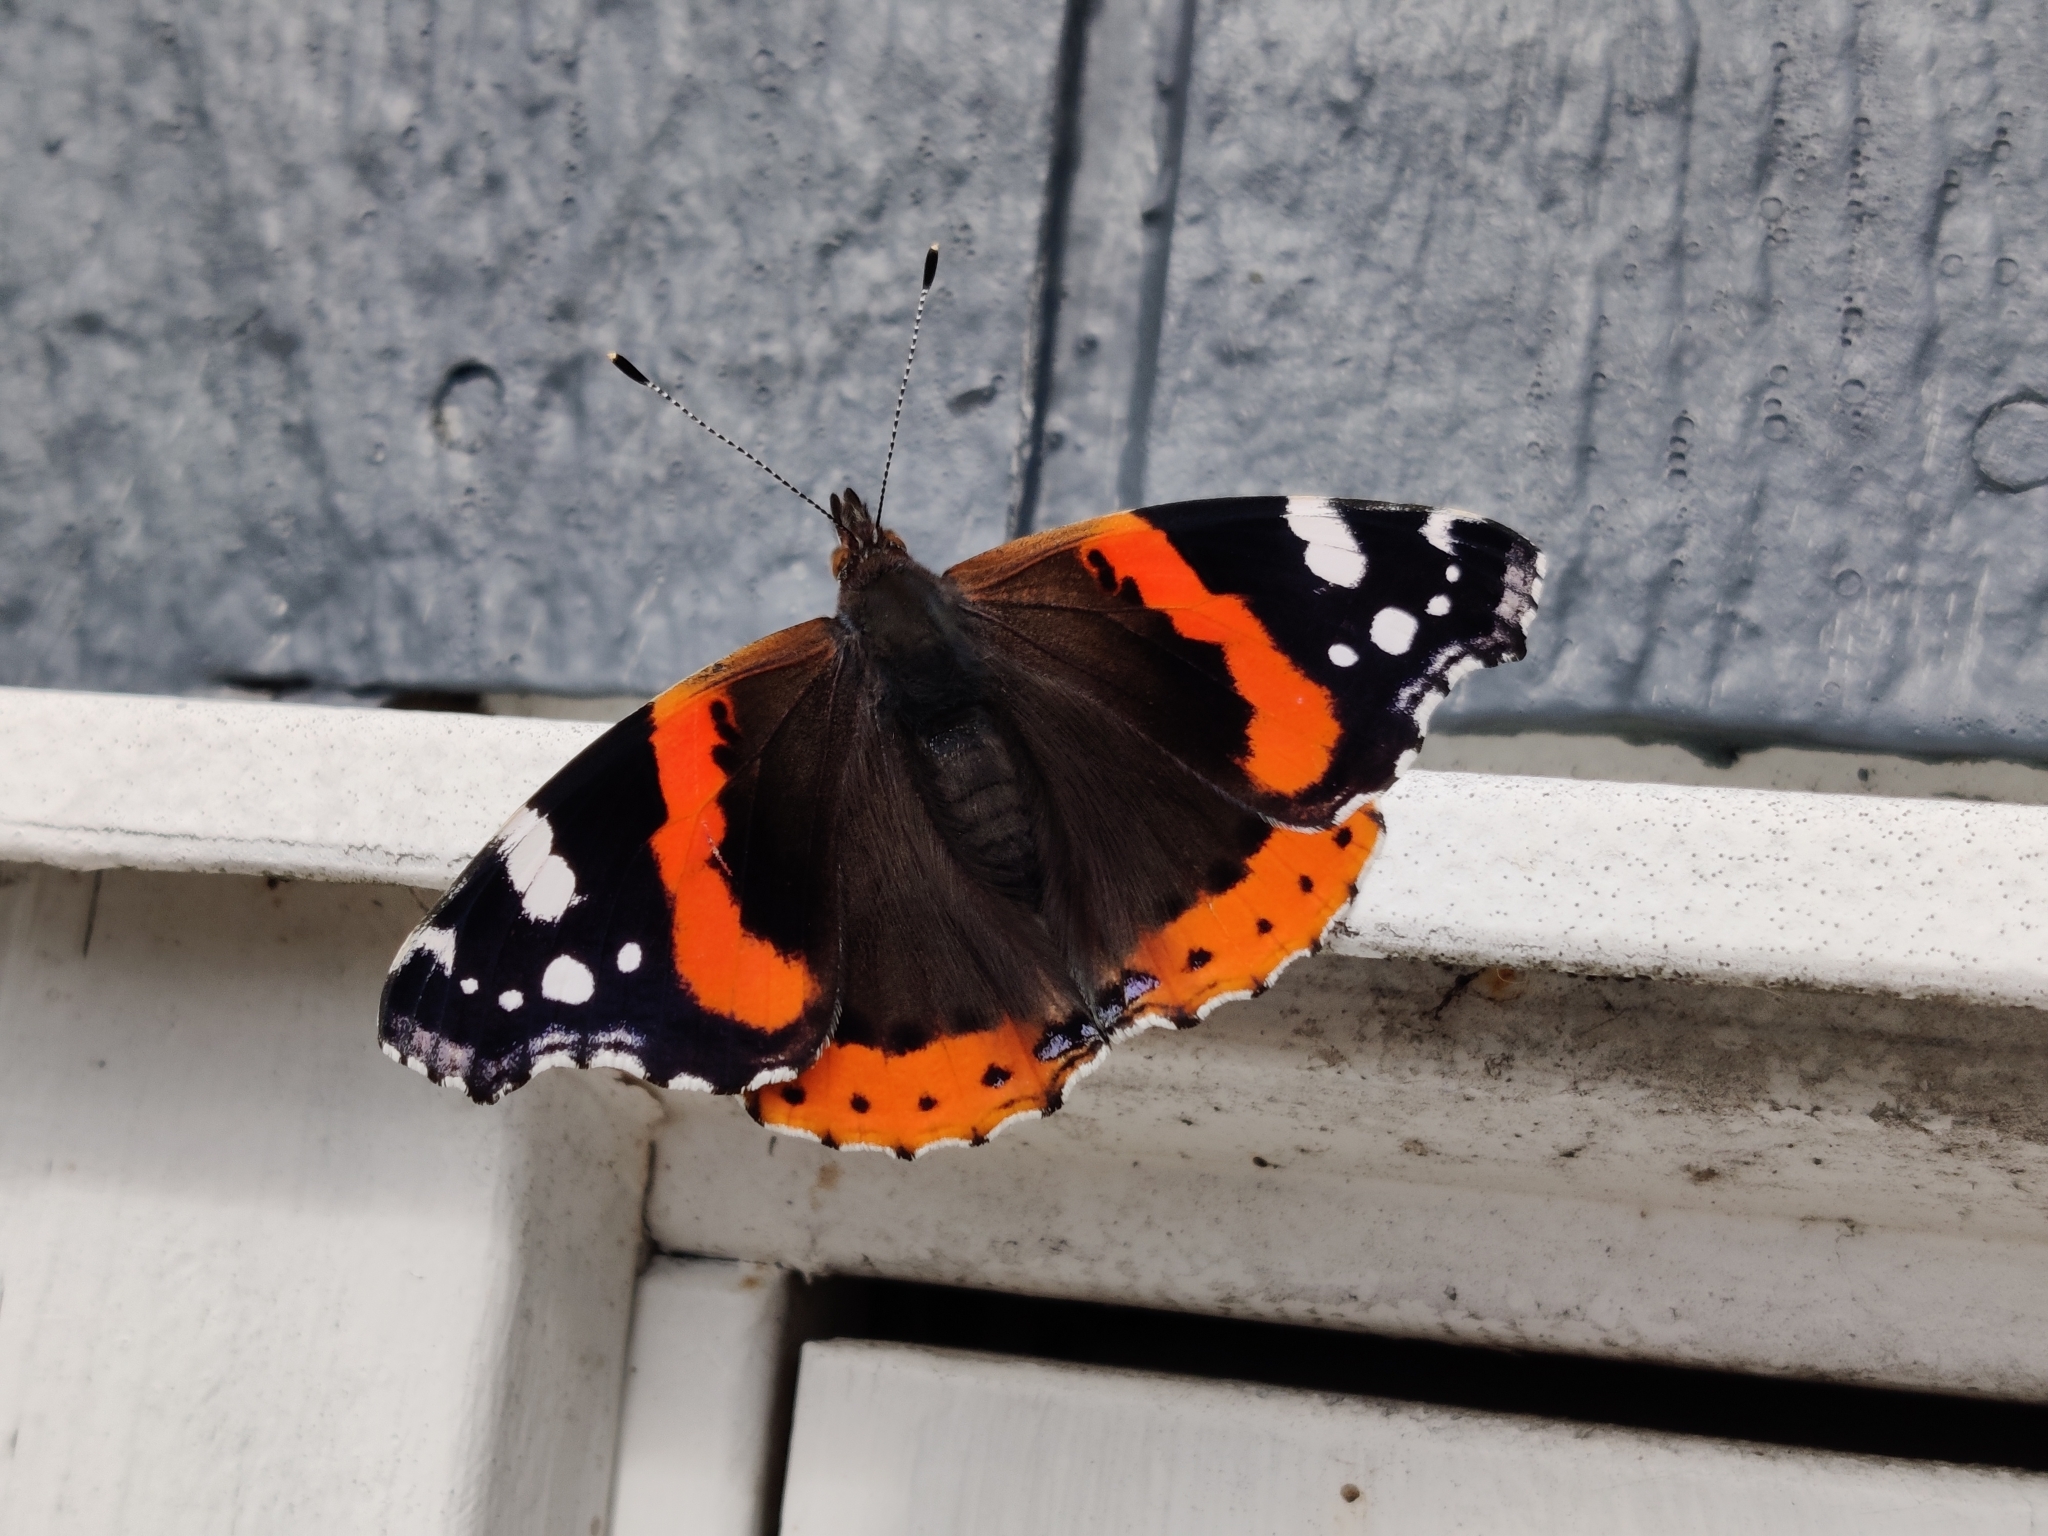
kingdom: Animalia
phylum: Arthropoda
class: Insecta
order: Lepidoptera
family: Nymphalidae
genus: Vanessa
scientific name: Vanessa atalanta
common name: Red admiral
